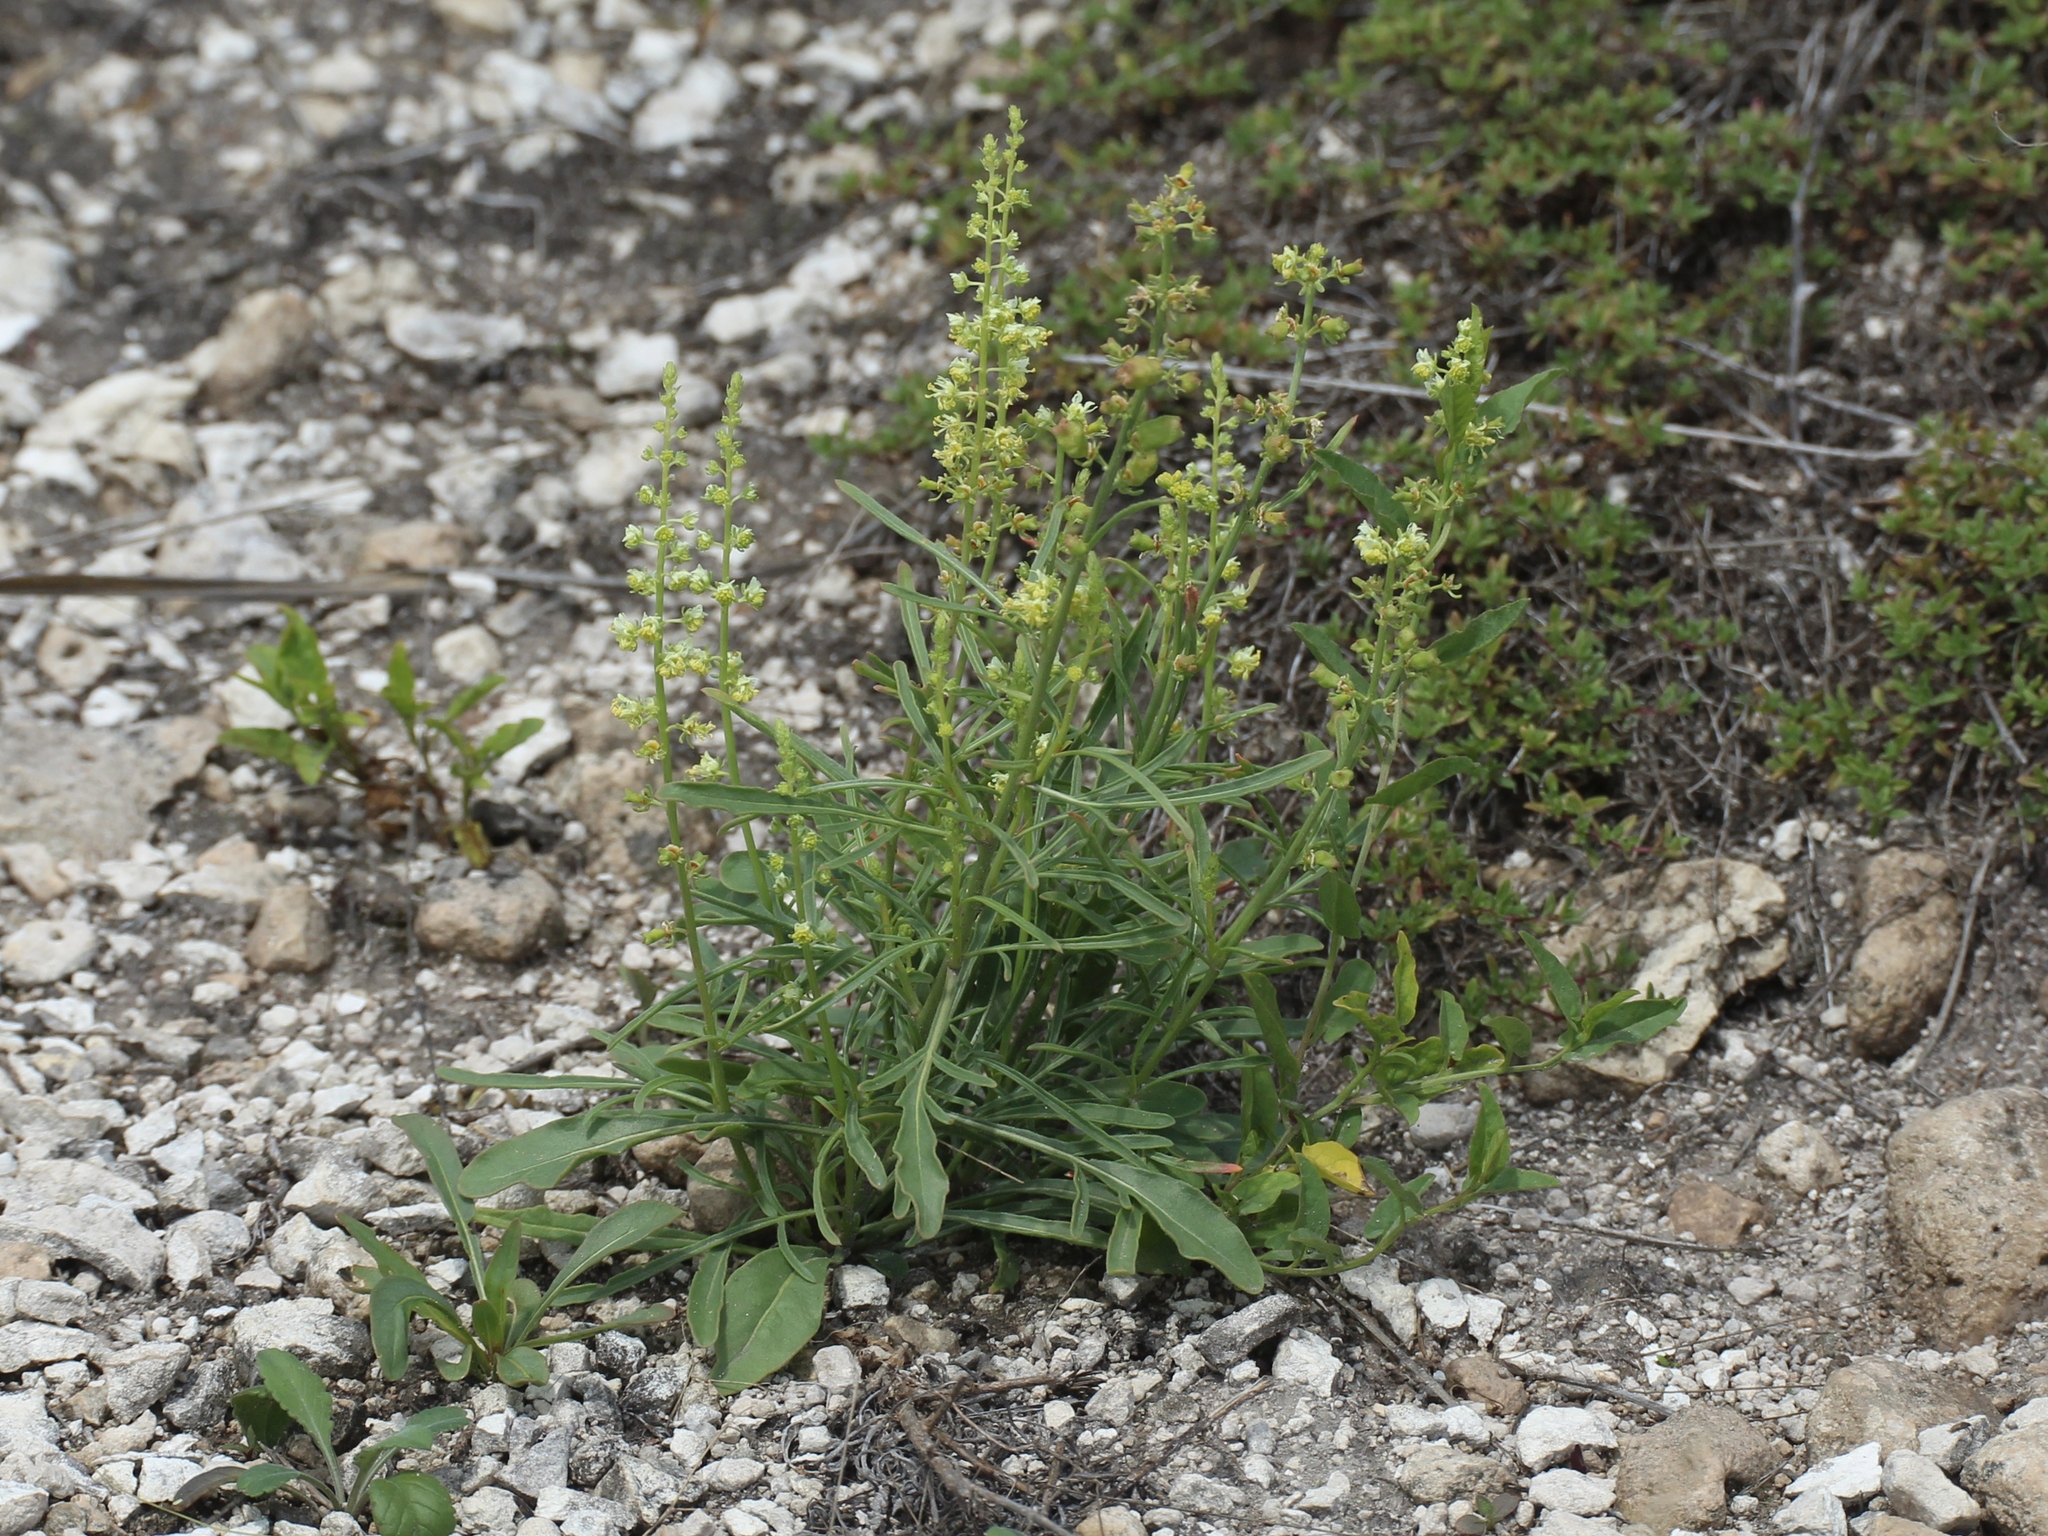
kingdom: Plantae
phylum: Tracheophyta
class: Magnoliopsida
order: Brassicales
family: Resedaceae
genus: Reseda
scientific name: Reseda lutea
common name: Wild mignonette
